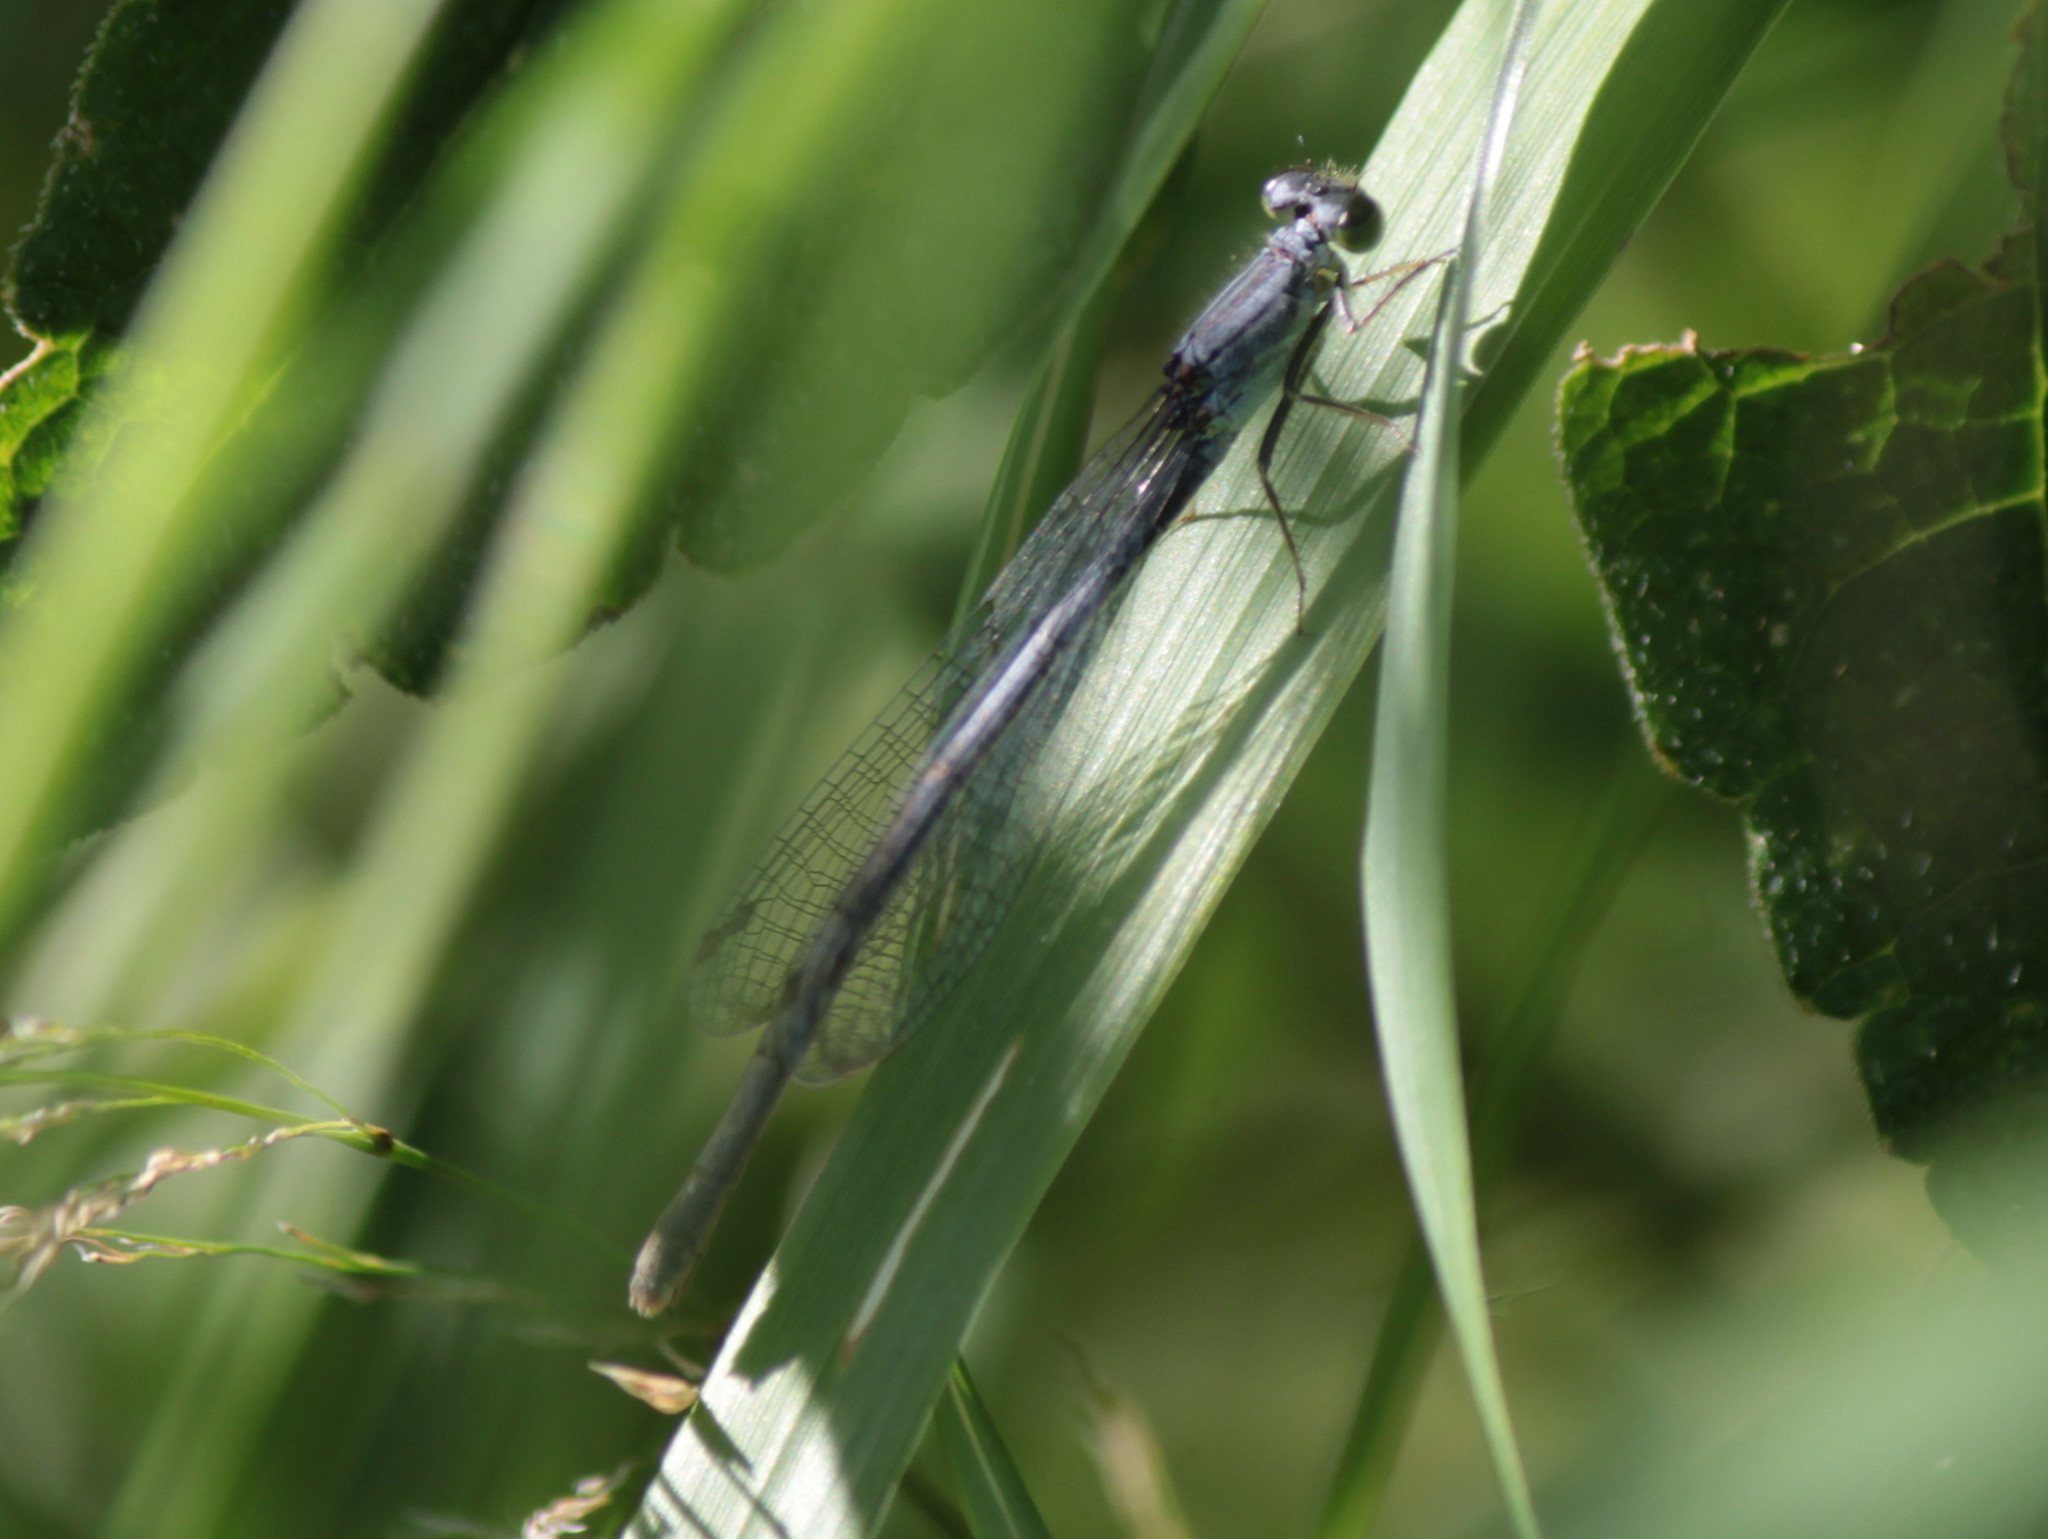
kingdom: Animalia
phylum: Arthropoda
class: Insecta
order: Odonata
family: Coenagrionidae
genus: Ischnura
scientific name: Ischnura verticalis
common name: Eastern forktail
